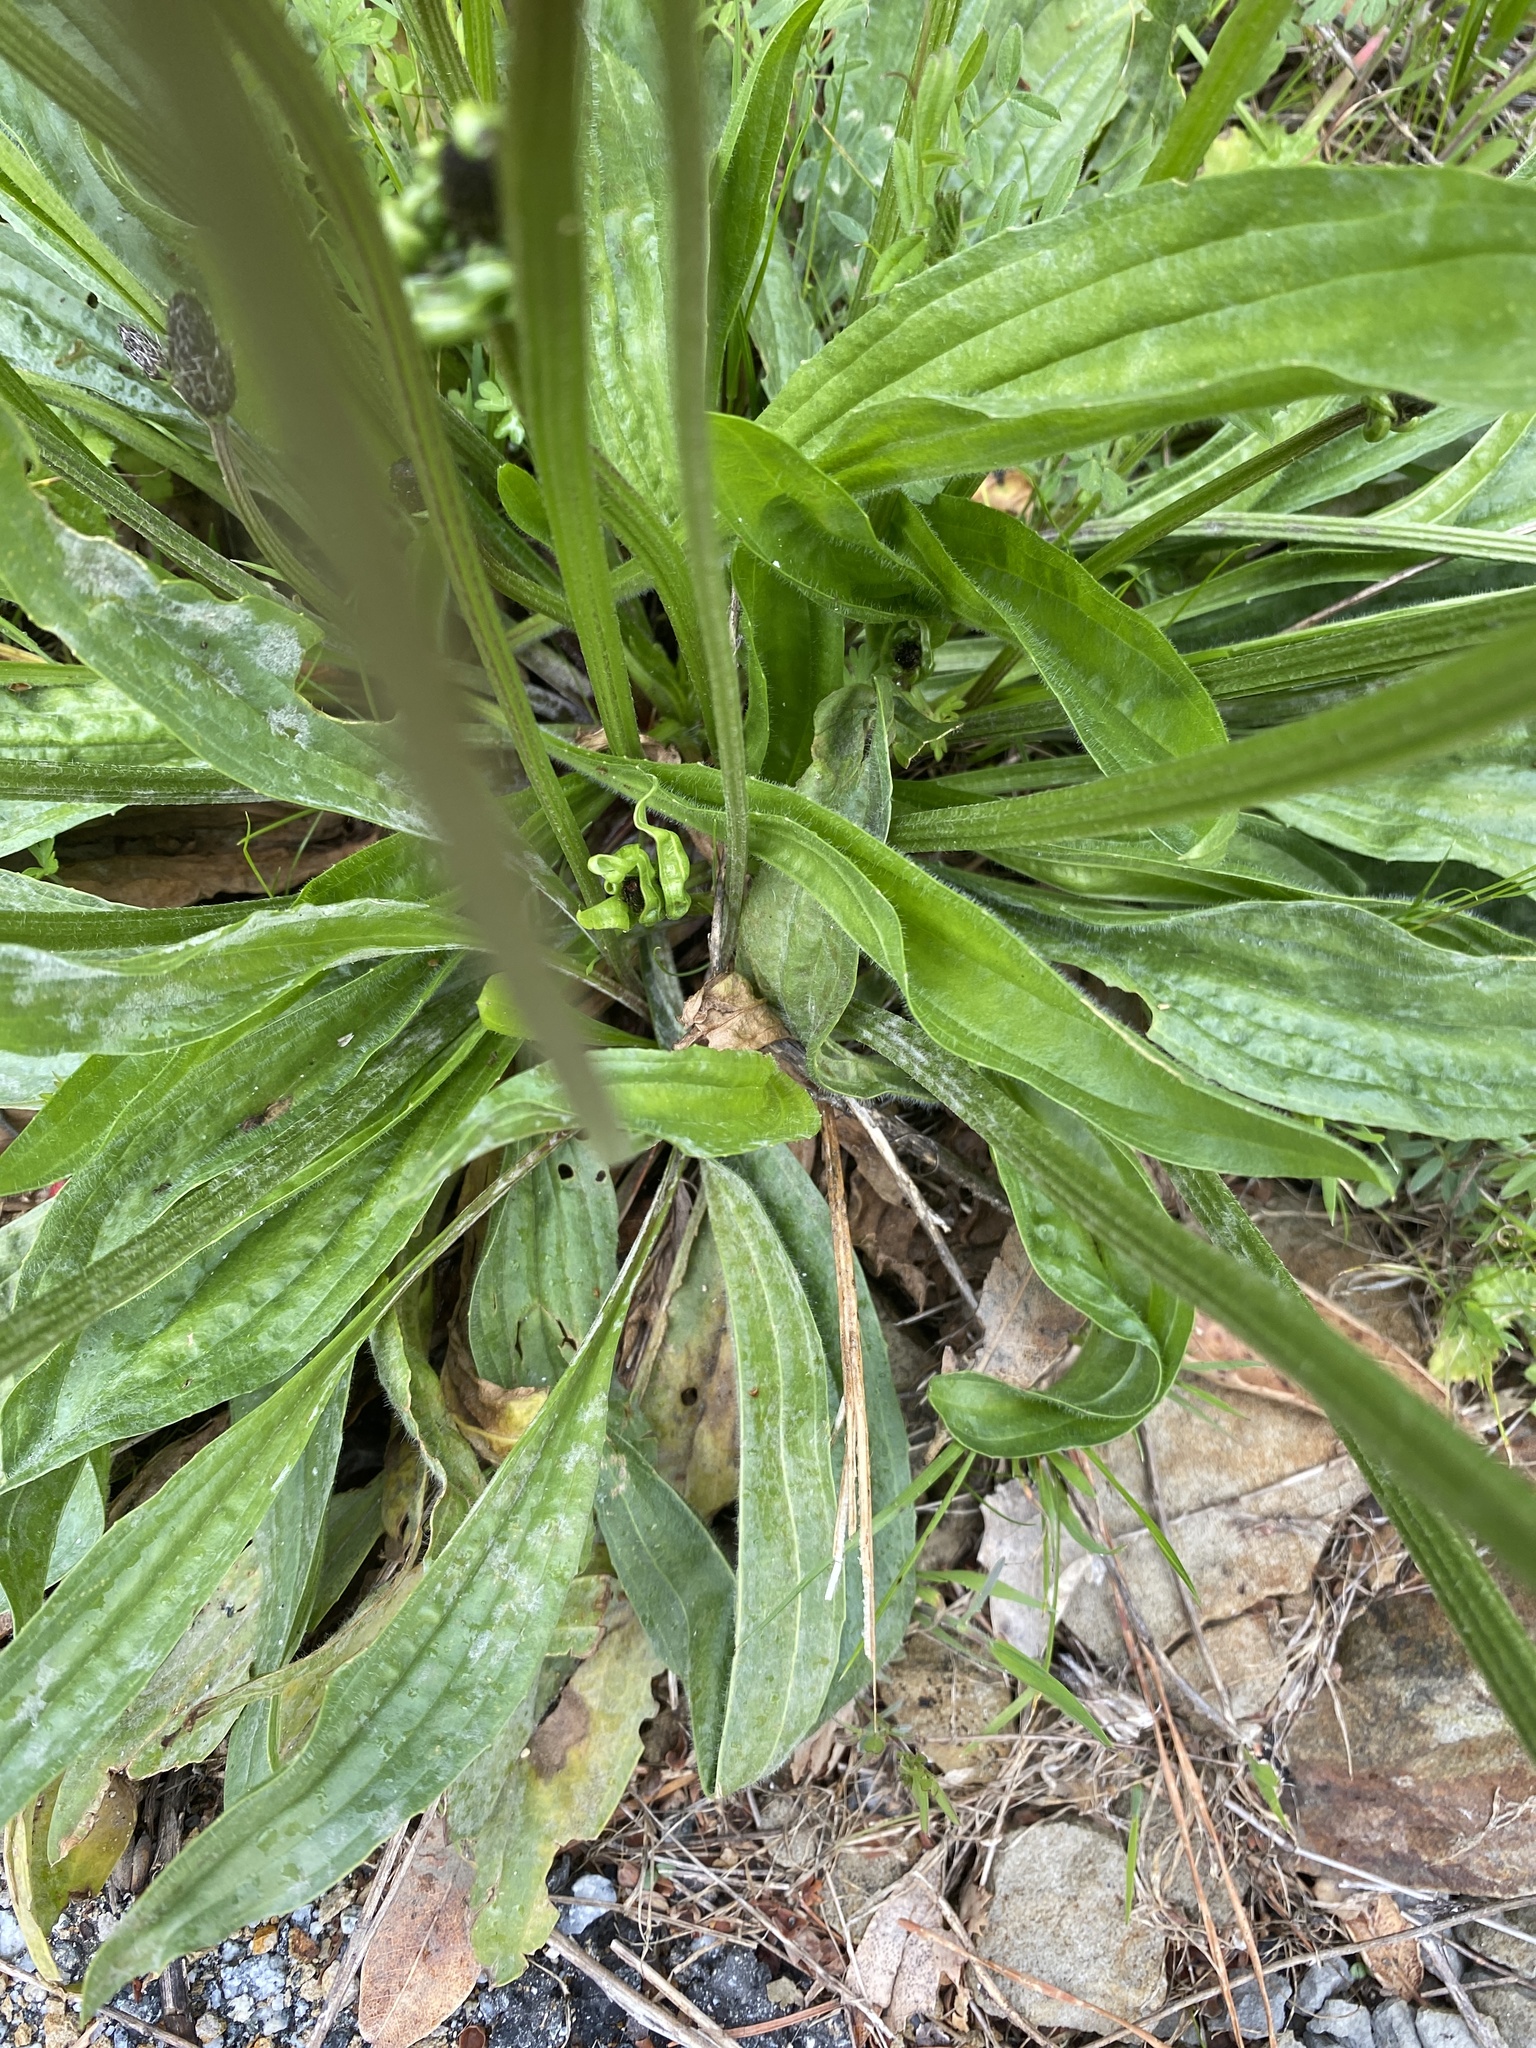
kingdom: Plantae
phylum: Tracheophyta
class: Magnoliopsida
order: Lamiales
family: Plantaginaceae
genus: Plantago
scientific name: Plantago lanceolata
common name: Ribwort plantain
